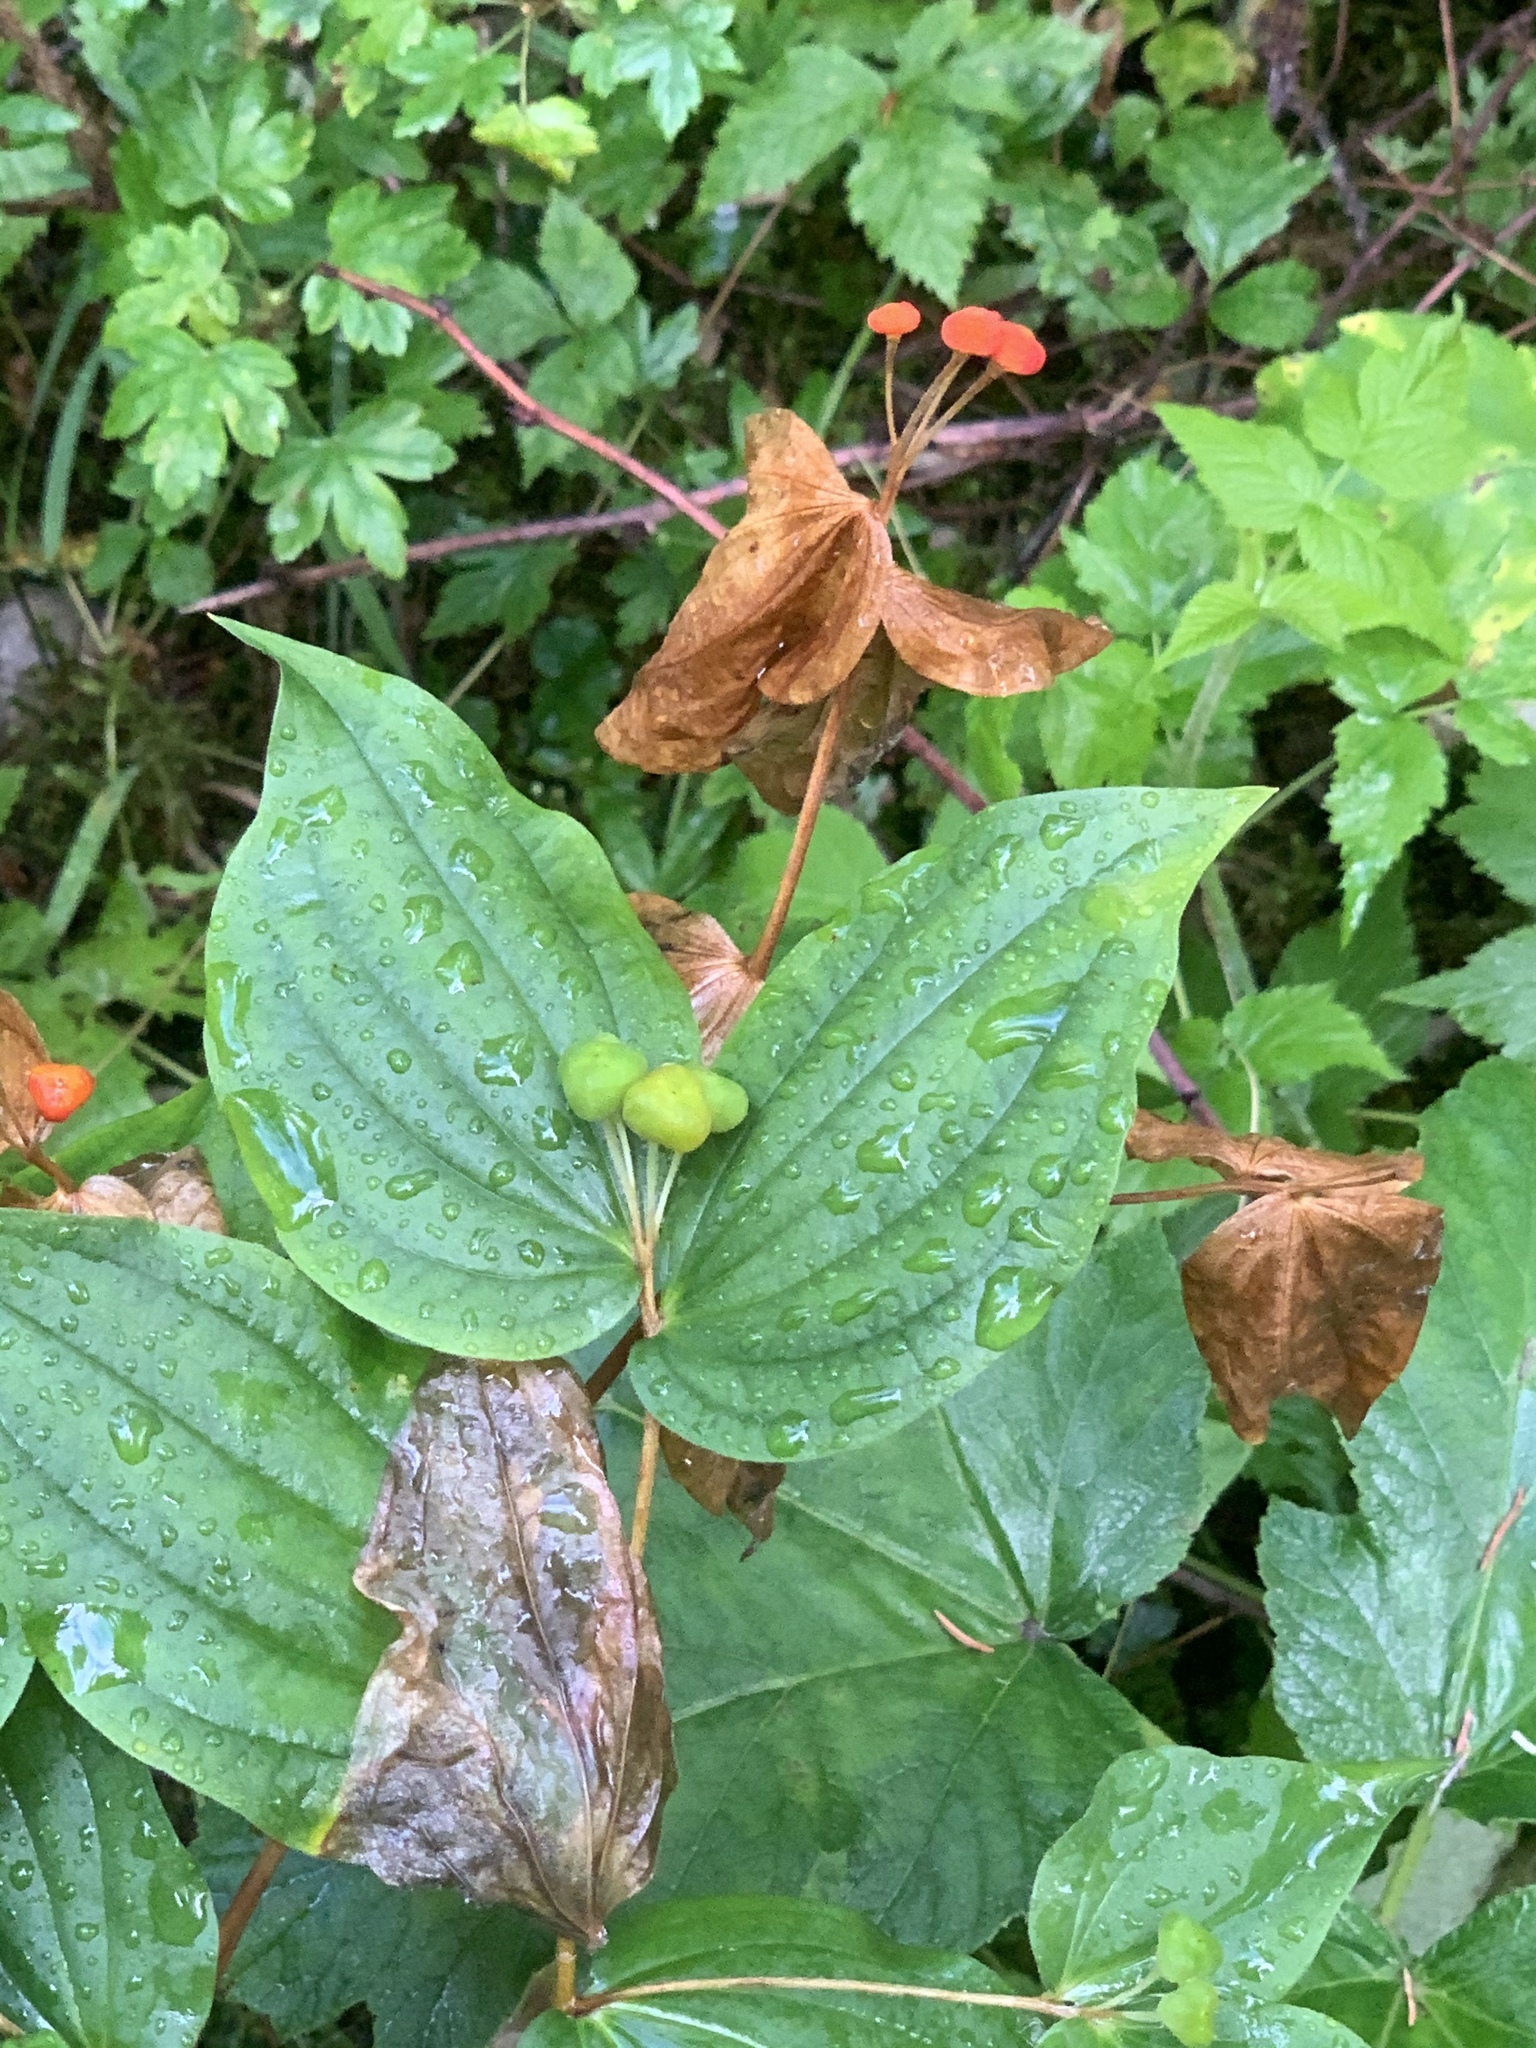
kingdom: Plantae
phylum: Tracheophyta
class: Liliopsida
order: Liliales
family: Liliaceae
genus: Prosartes
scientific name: Prosartes trachycarpa
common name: Rough-fruit fairy-bells
